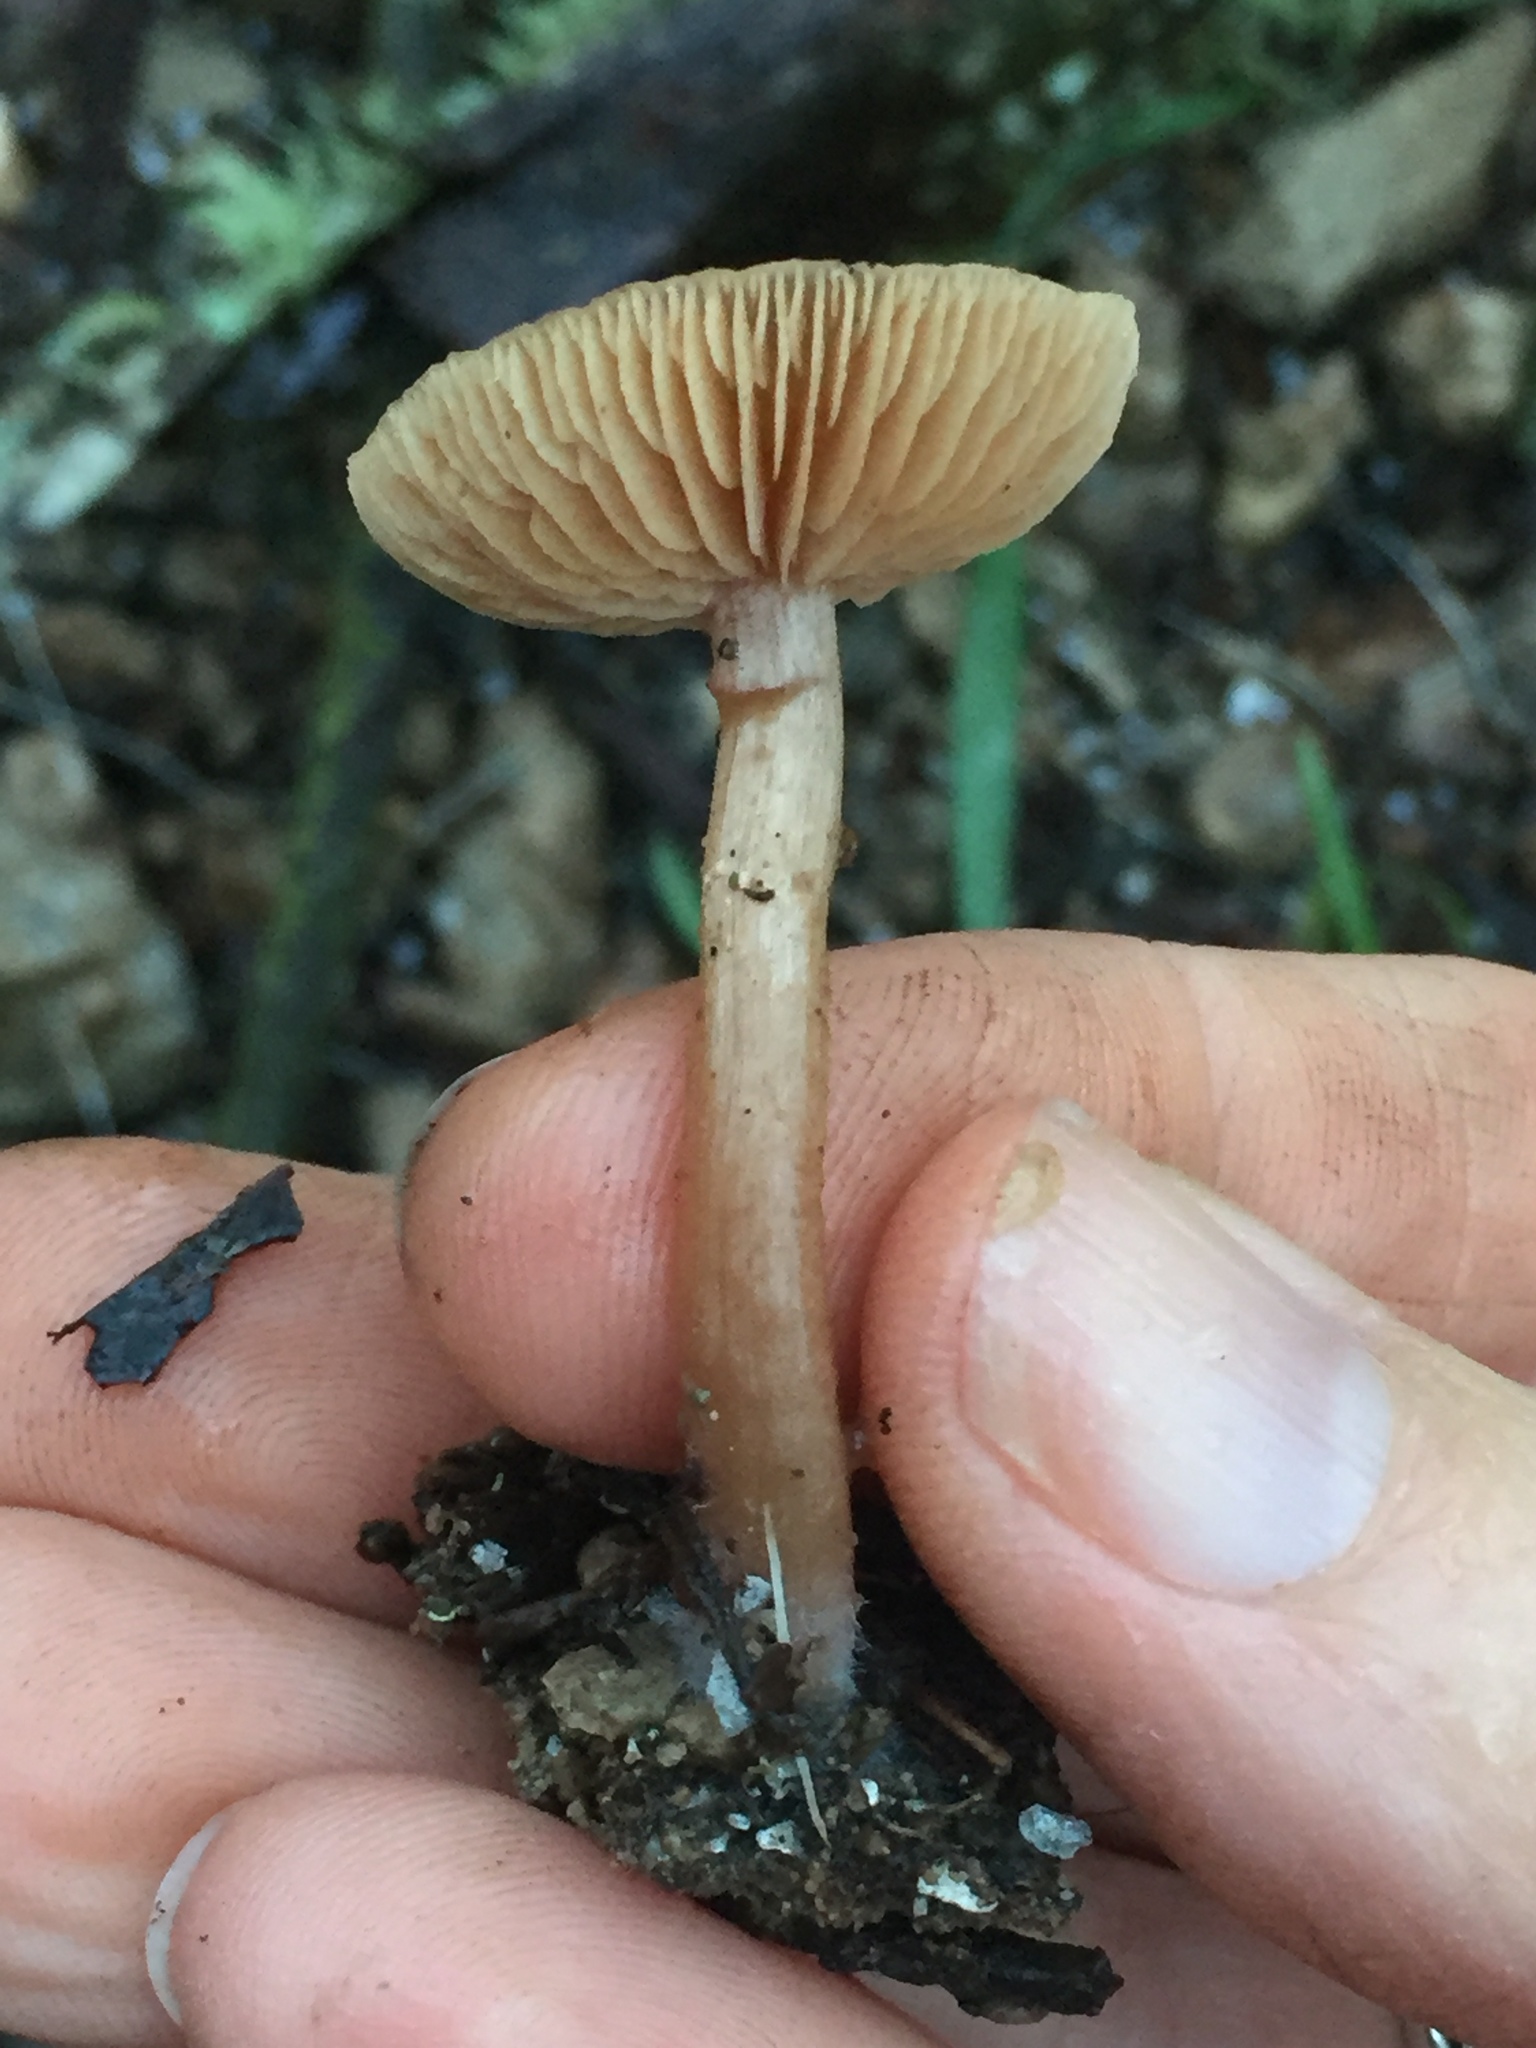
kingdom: Fungi
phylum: Basidiomycota
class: Agaricomycetes
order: Agaricales
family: Tubariaceae
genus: Tubaria
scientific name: Tubaria furfuracea
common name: Scurfy twiglet
